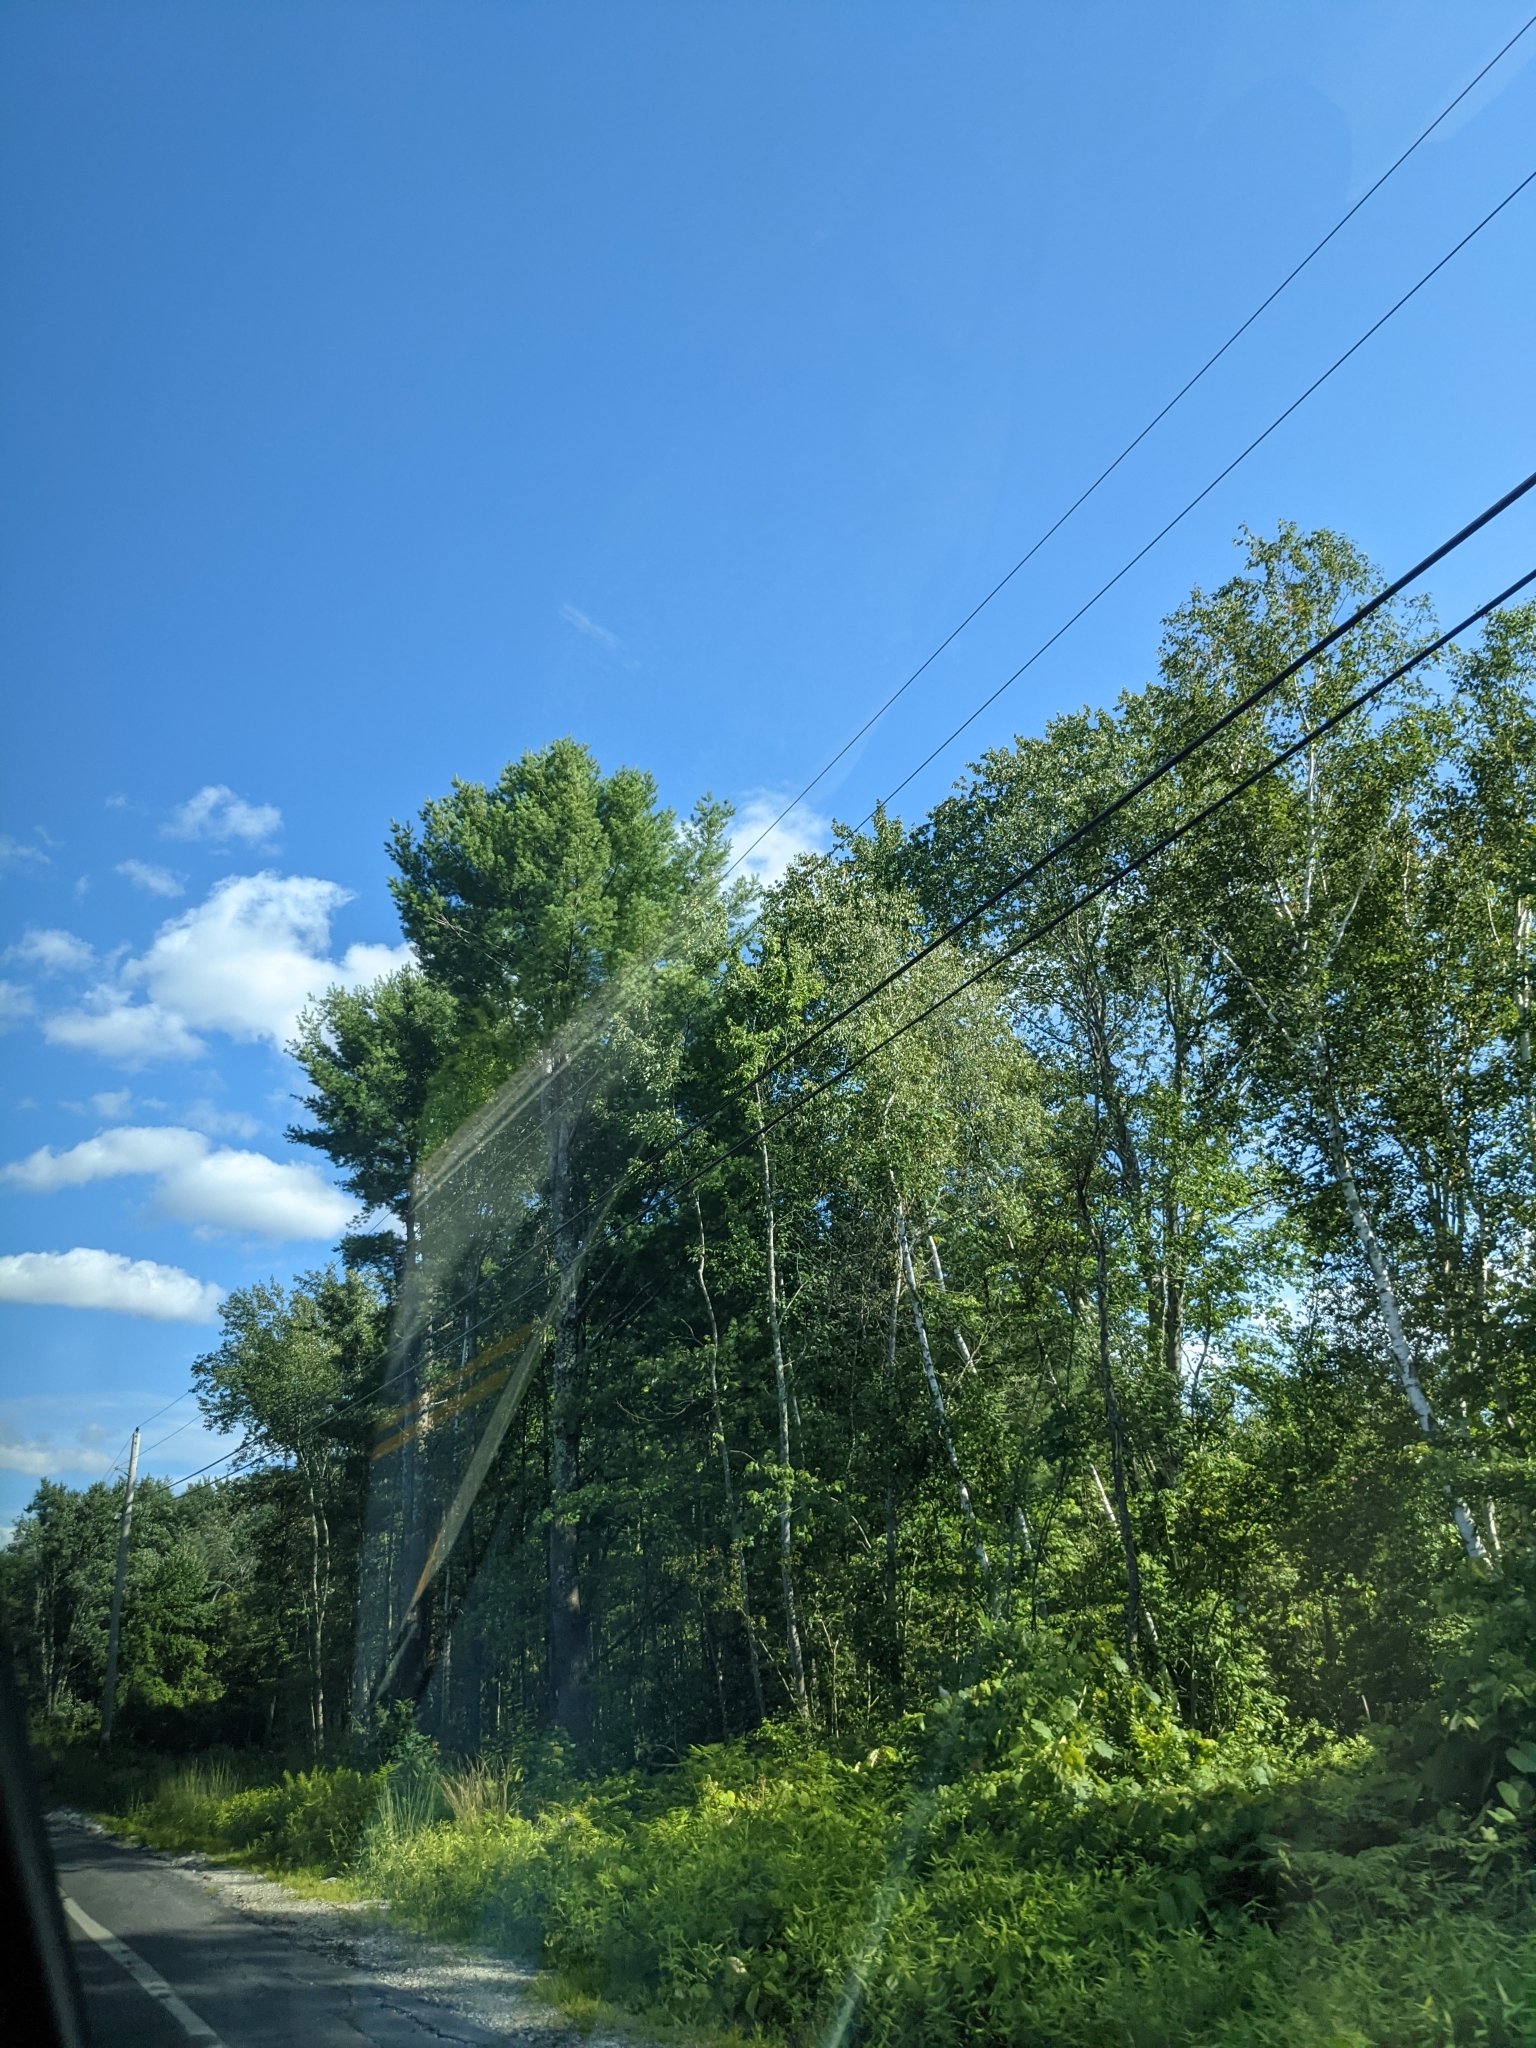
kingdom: Plantae
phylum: Tracheophyta
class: Pinopsida
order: Pinales
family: Pinaceae
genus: Pinus
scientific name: Pinus strobus
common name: Weymouth pine
